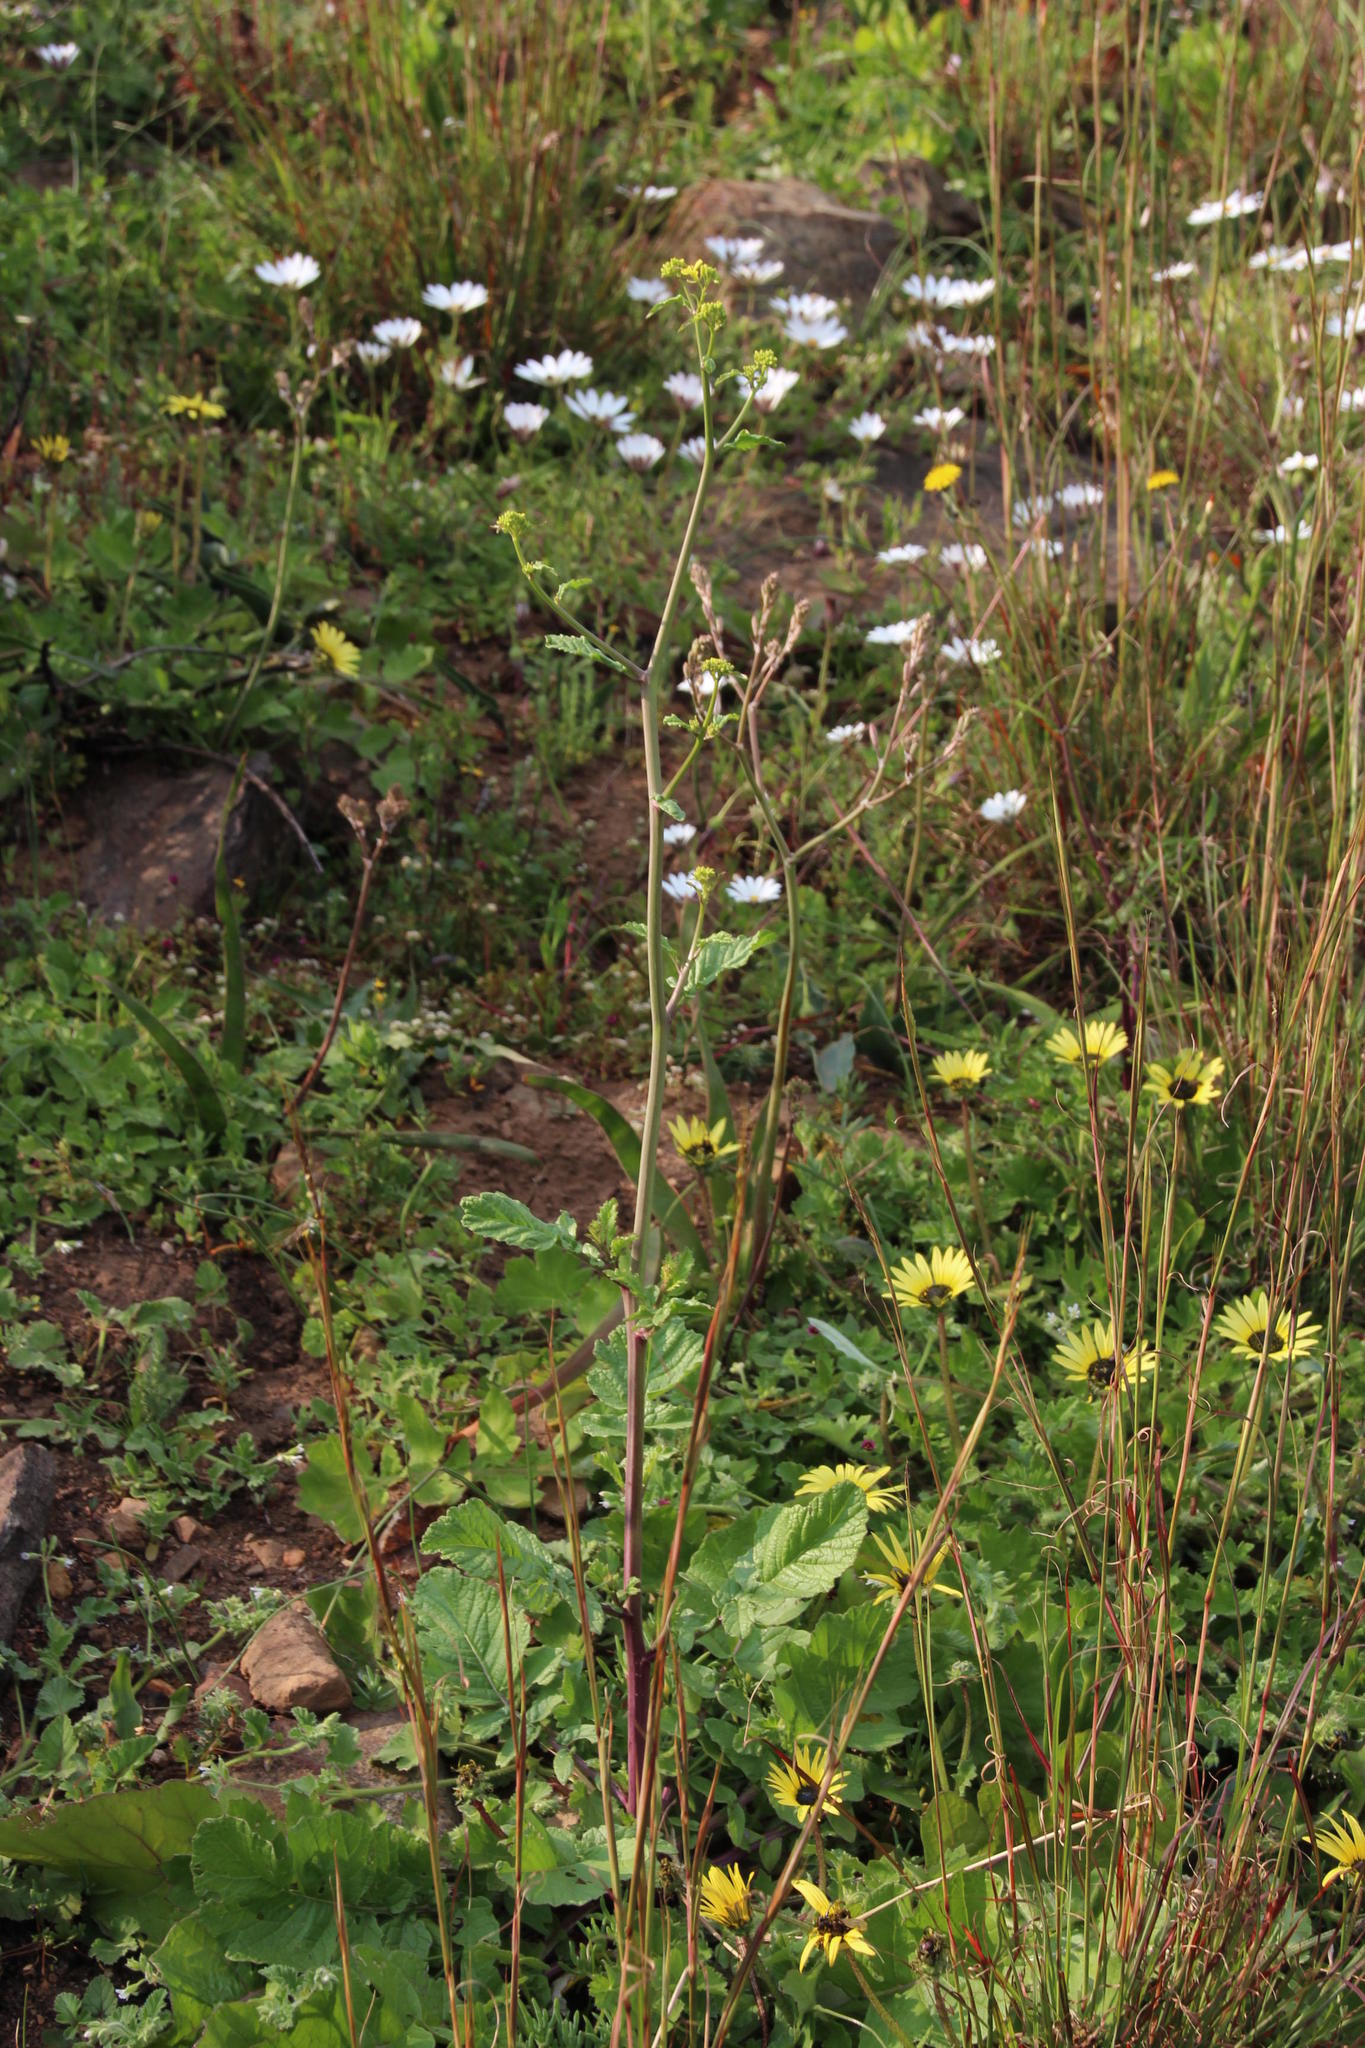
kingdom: Plantae
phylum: Tracheophyta
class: Magnoliopsida
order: Brassicales
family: Brassicaceae
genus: Raphanus
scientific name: Raphanus raphanistrum
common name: Wild radish
